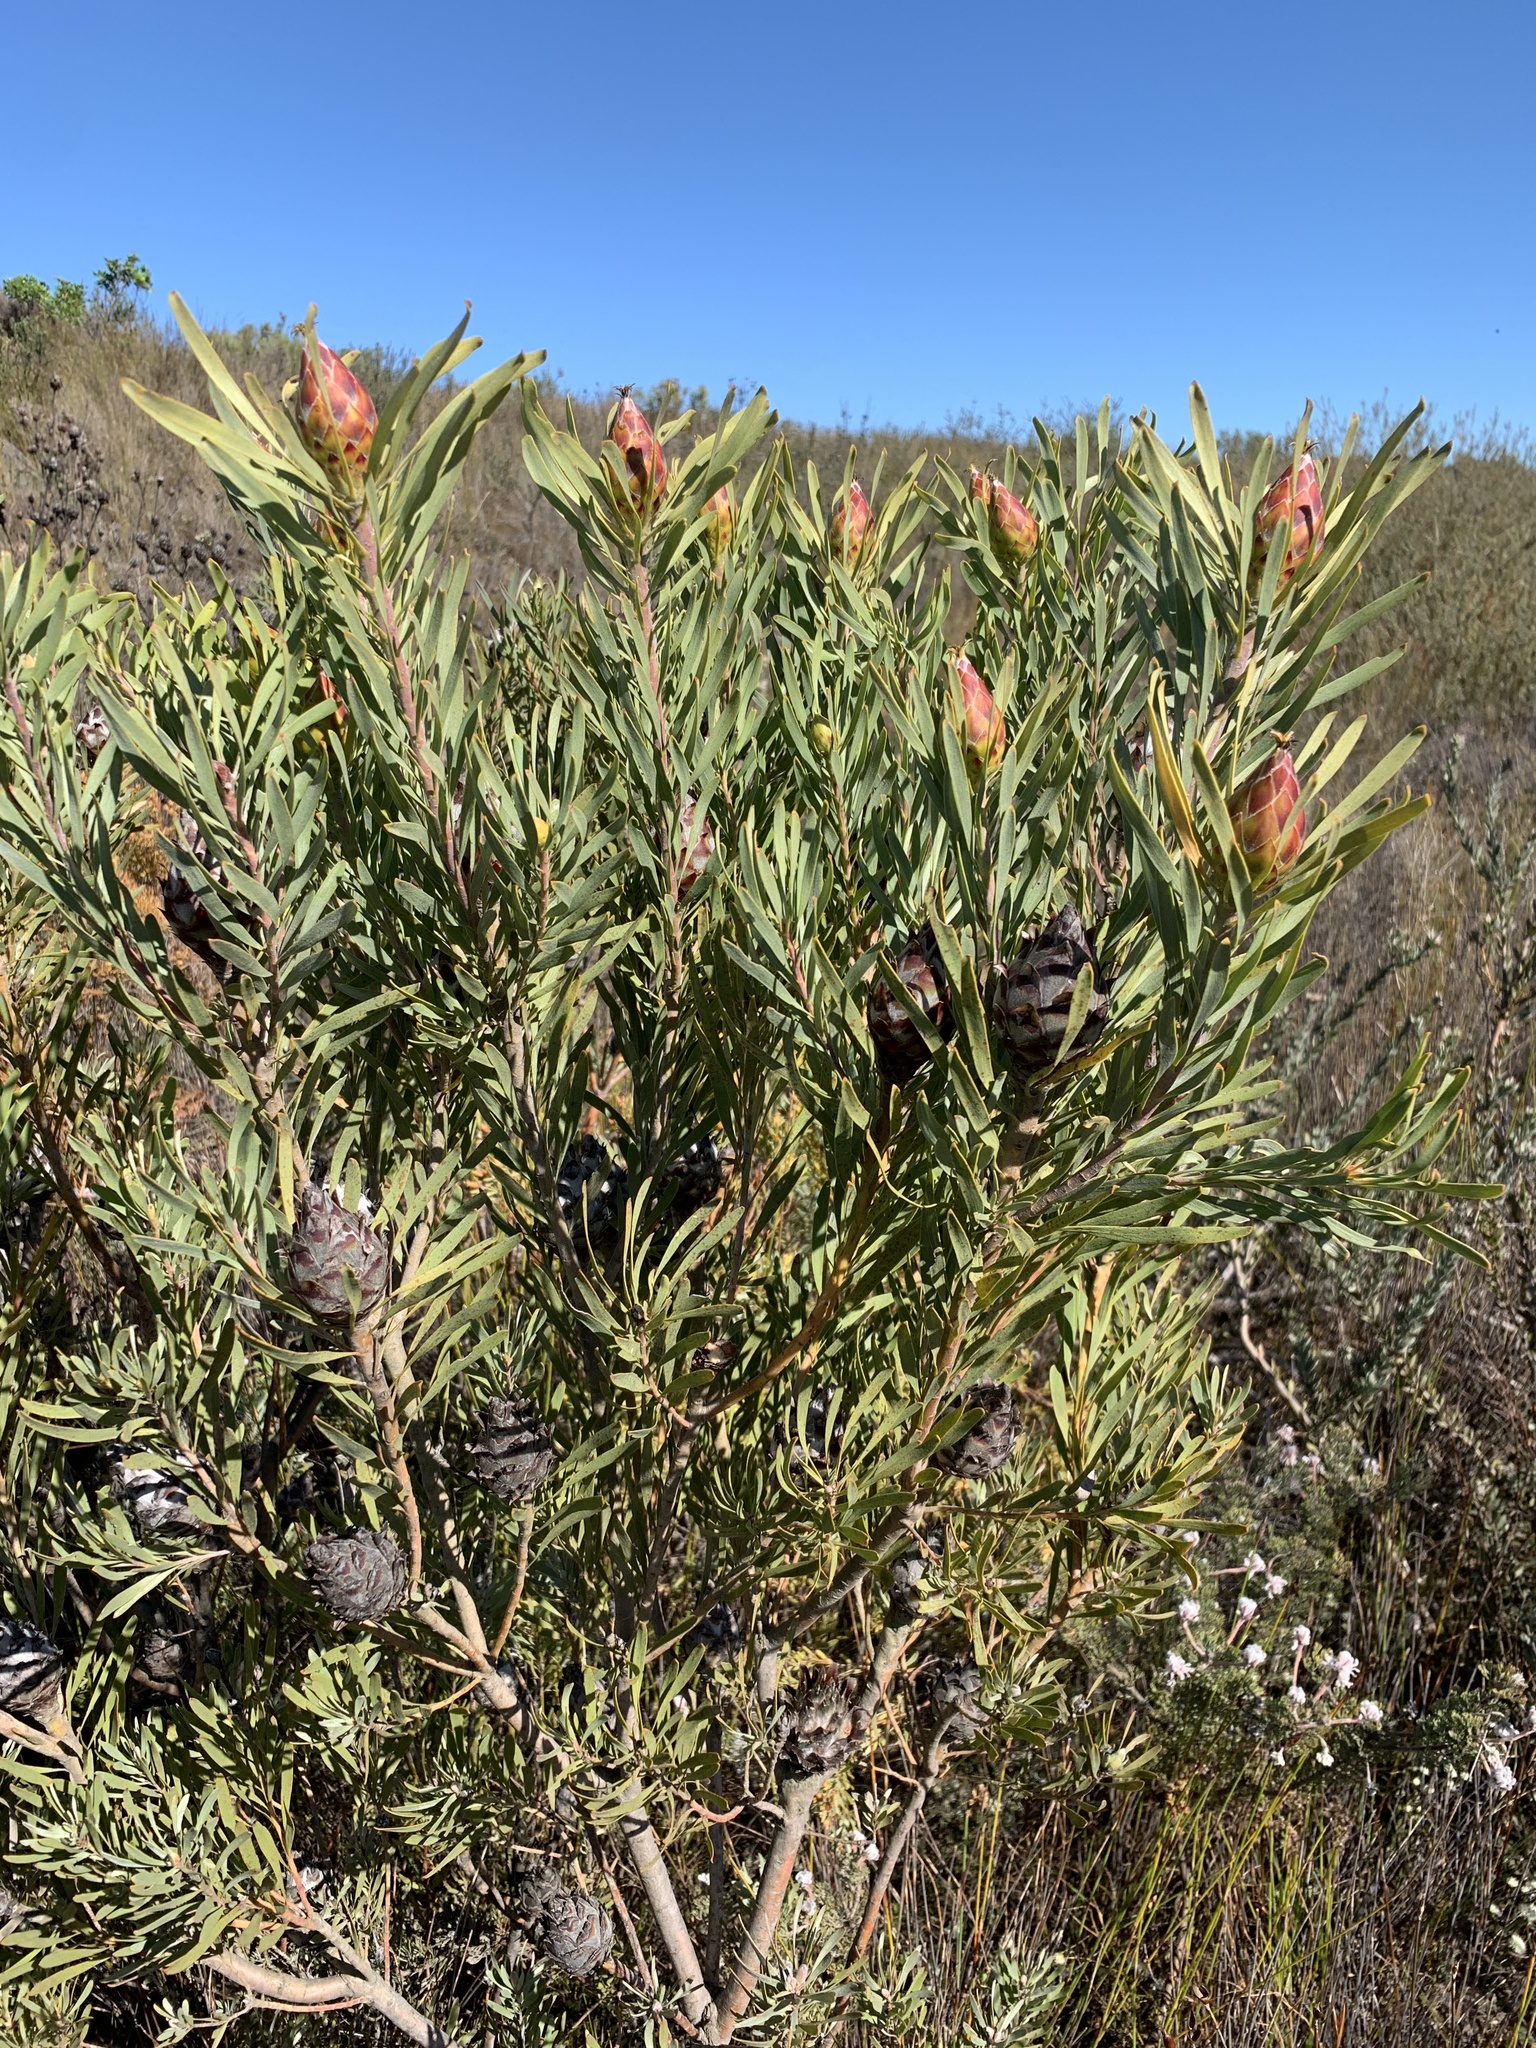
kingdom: Plantae
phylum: Tracheophyta
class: Magnoliopsida
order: Proteales
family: Proteaceae
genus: Leucadendron
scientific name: Leucadendron rubrum
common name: Spinning top
